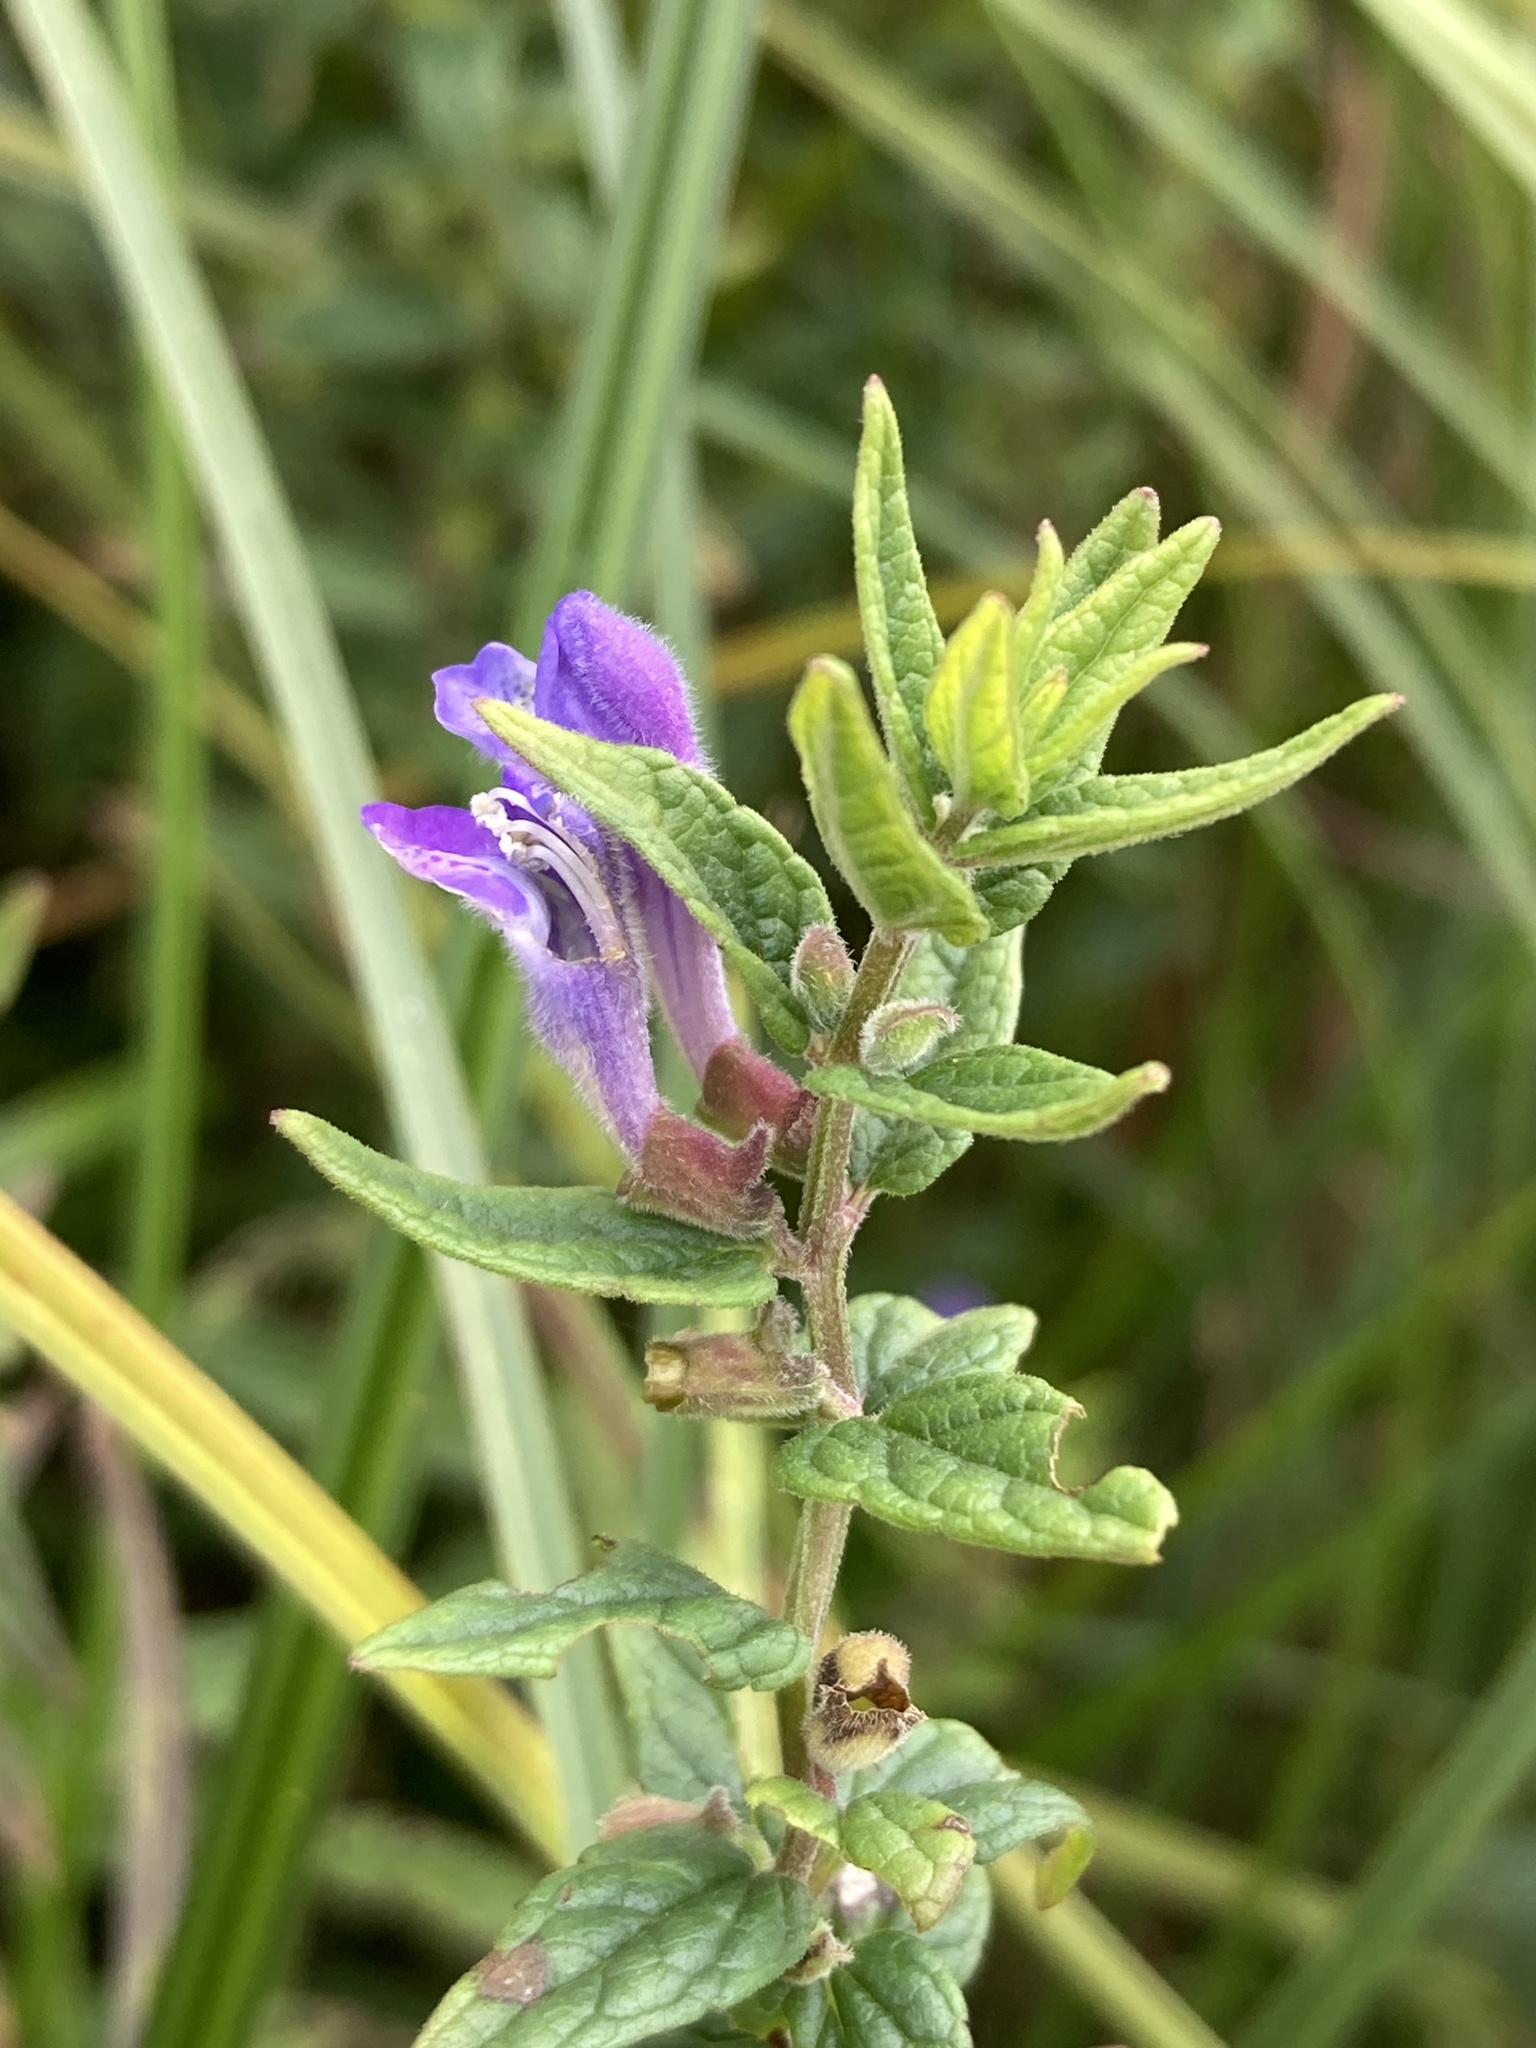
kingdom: Plantae
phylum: Tracheophyta
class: Magnoliopsida
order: Lamiales
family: Lamiaceae
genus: Scutellaria
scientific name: Scutellaria galericulata
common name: Skullcap
